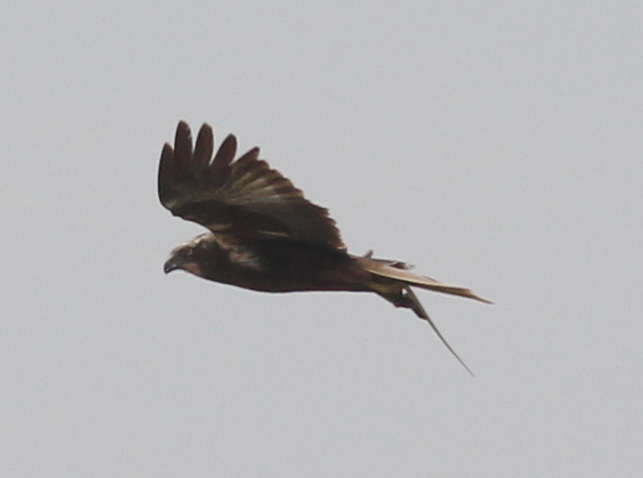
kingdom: Animalia
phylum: Chordata
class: Aves
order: Accipitriformes
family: Accipitridae
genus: Circus
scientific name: Circus aeruginosus
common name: Western marsh harrier
